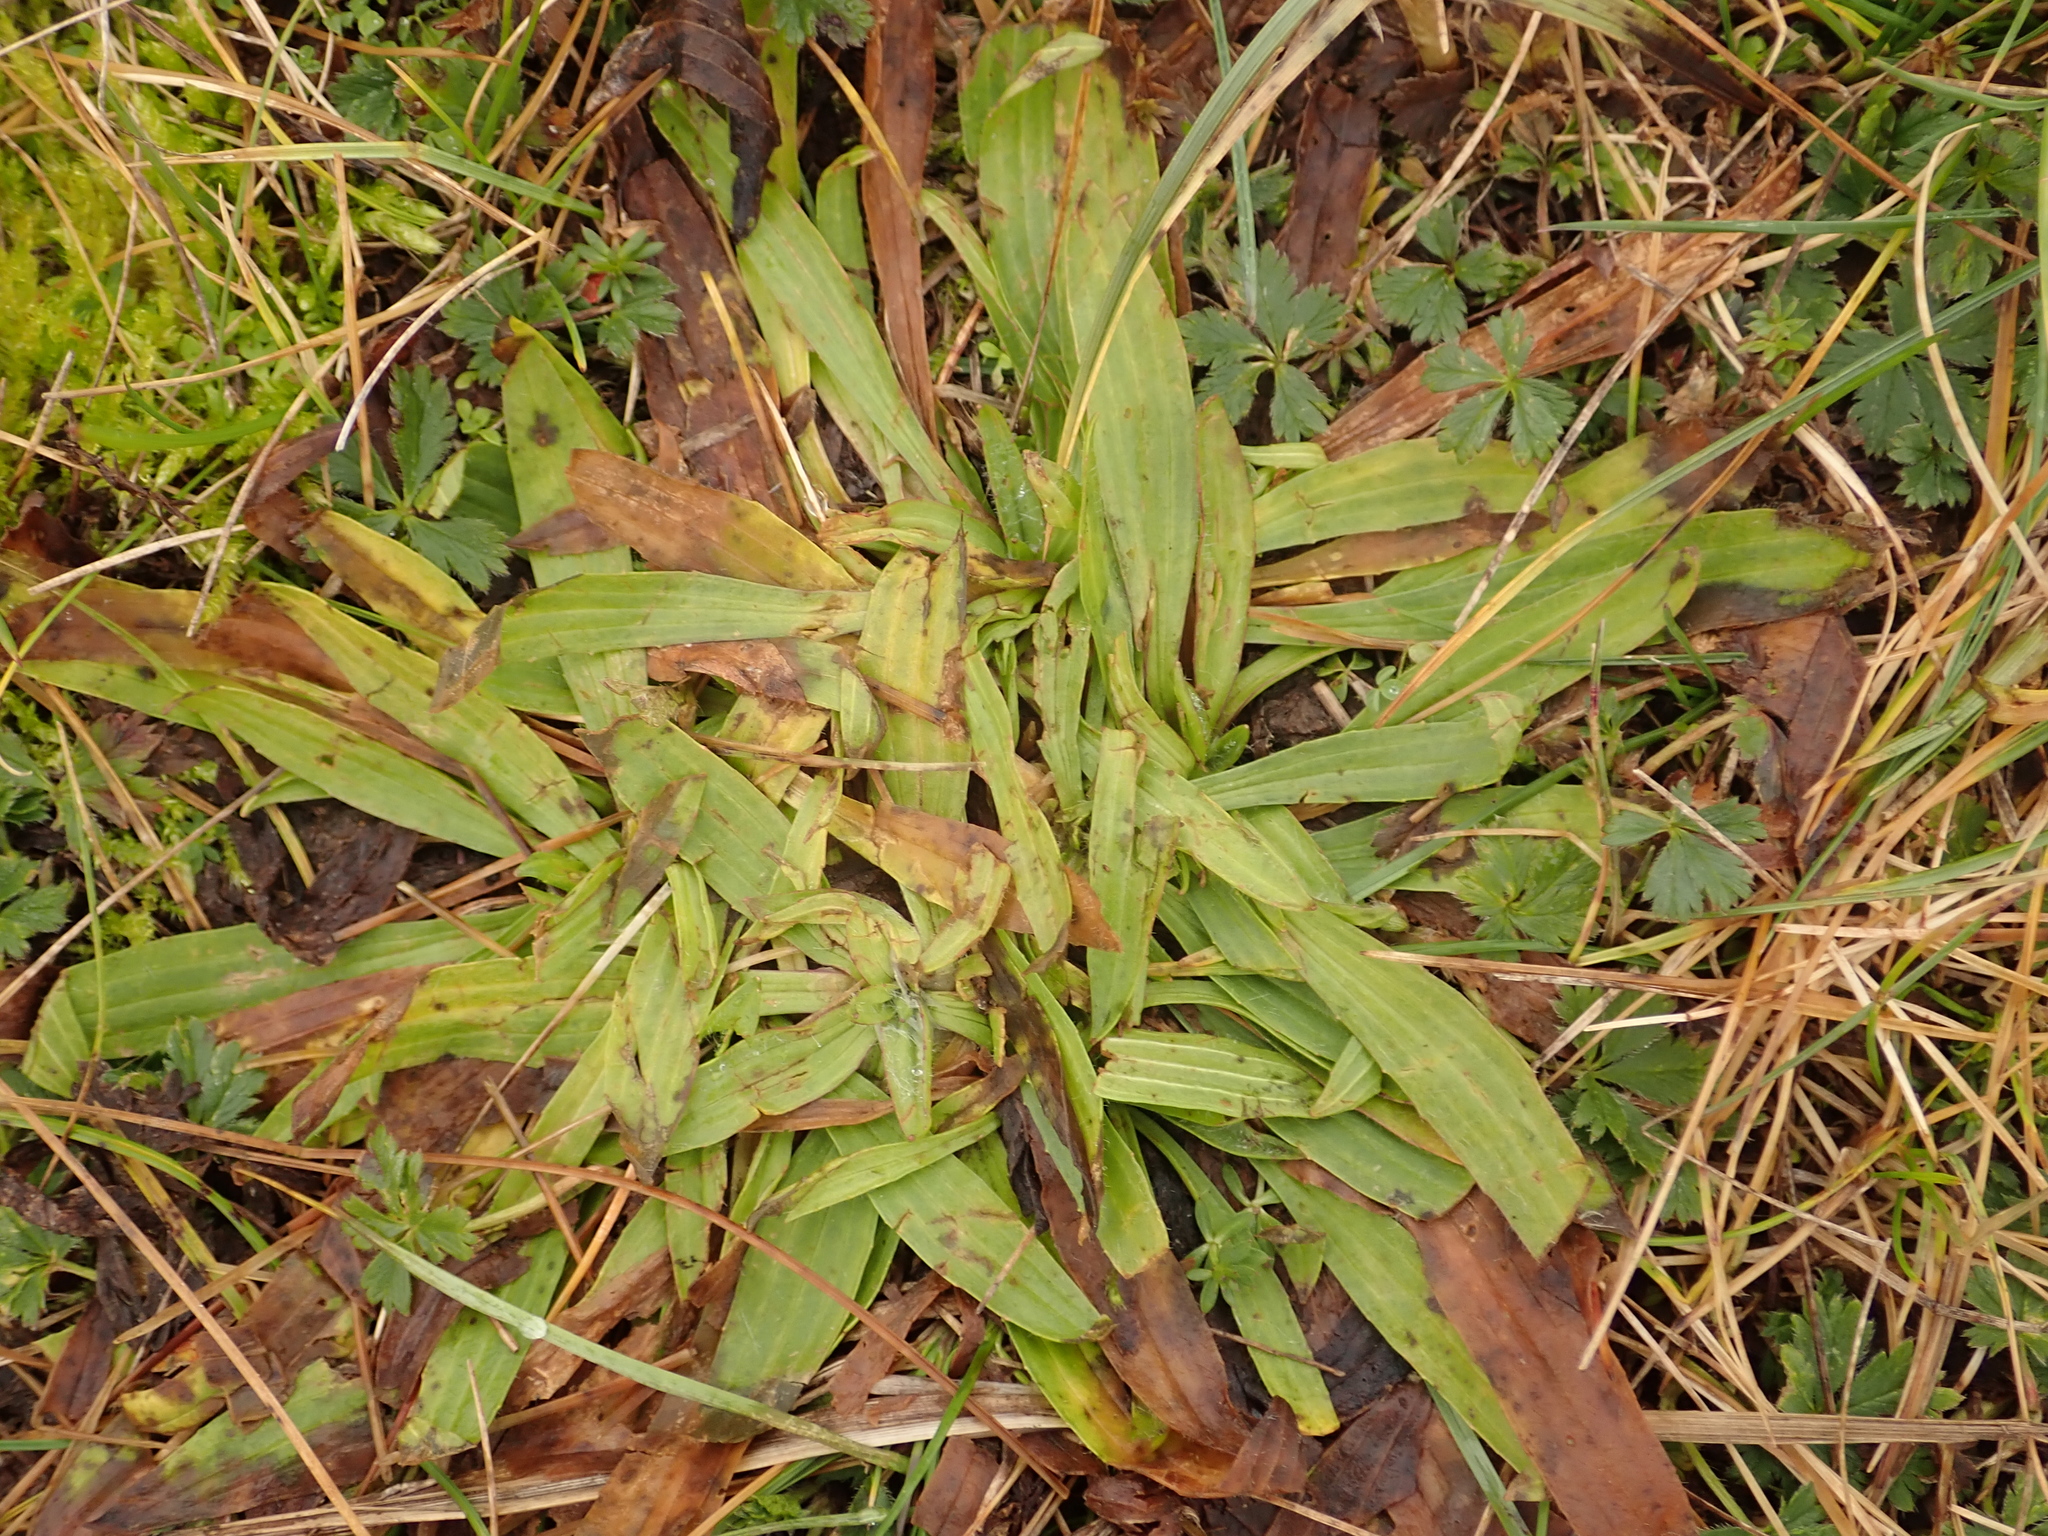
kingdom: Plantae
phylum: Tracheophyta
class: Magnoliopsida
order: Lamiales
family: Plantaginaceae
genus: Plantago
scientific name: Plantago lanceolata
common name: Ribwort plantain
